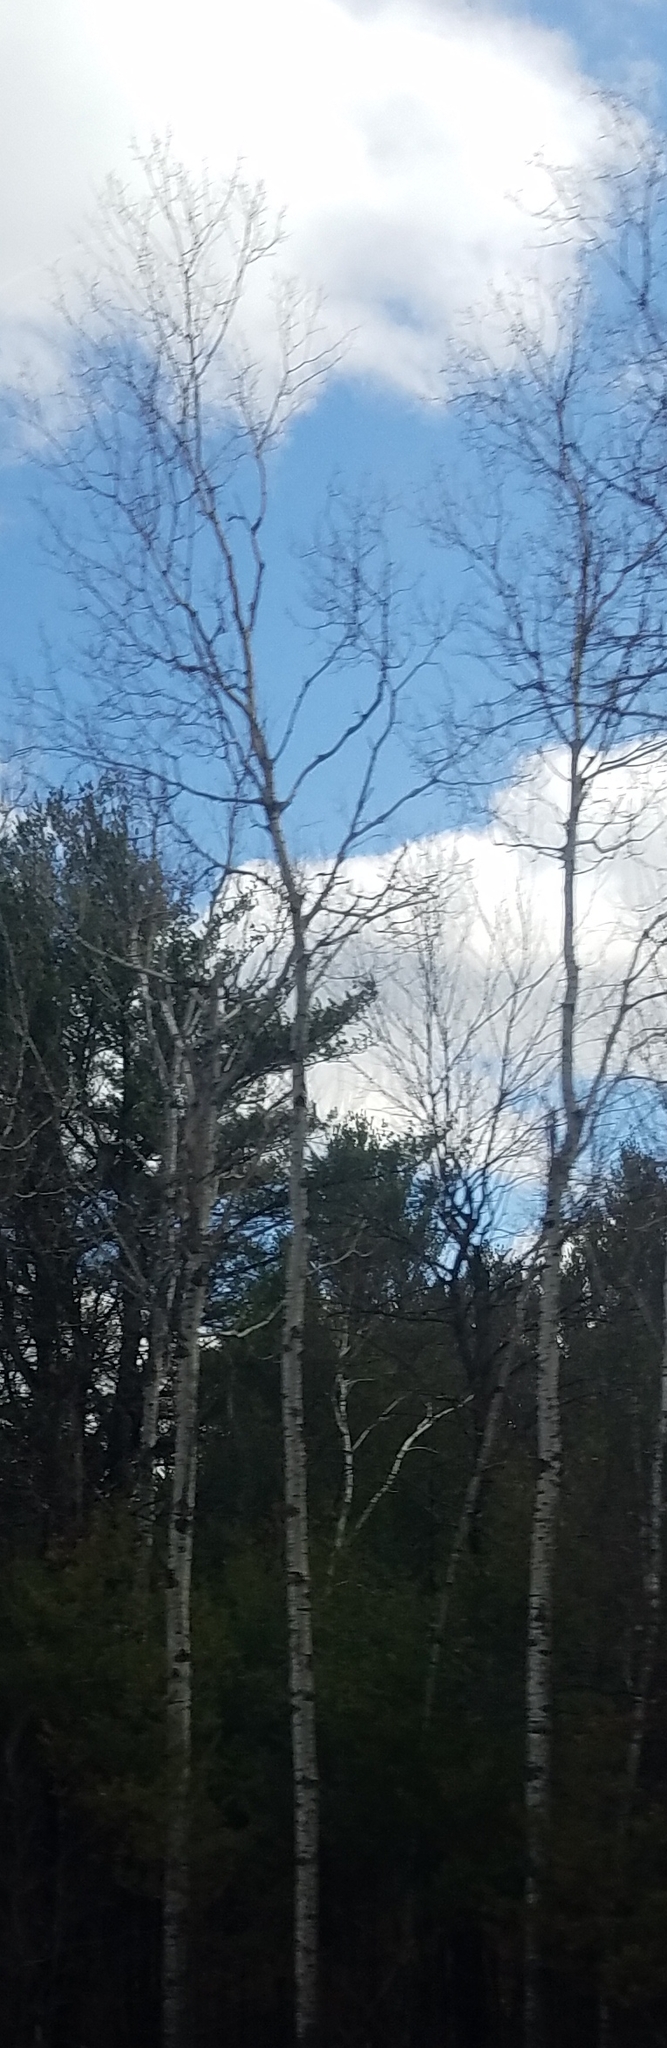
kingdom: Plantae
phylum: Tracheophyta
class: Magnoliopsida
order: Malpighiales
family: Salicaceae
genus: Populus
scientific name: Populus tremuloides
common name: Quaking aspen
